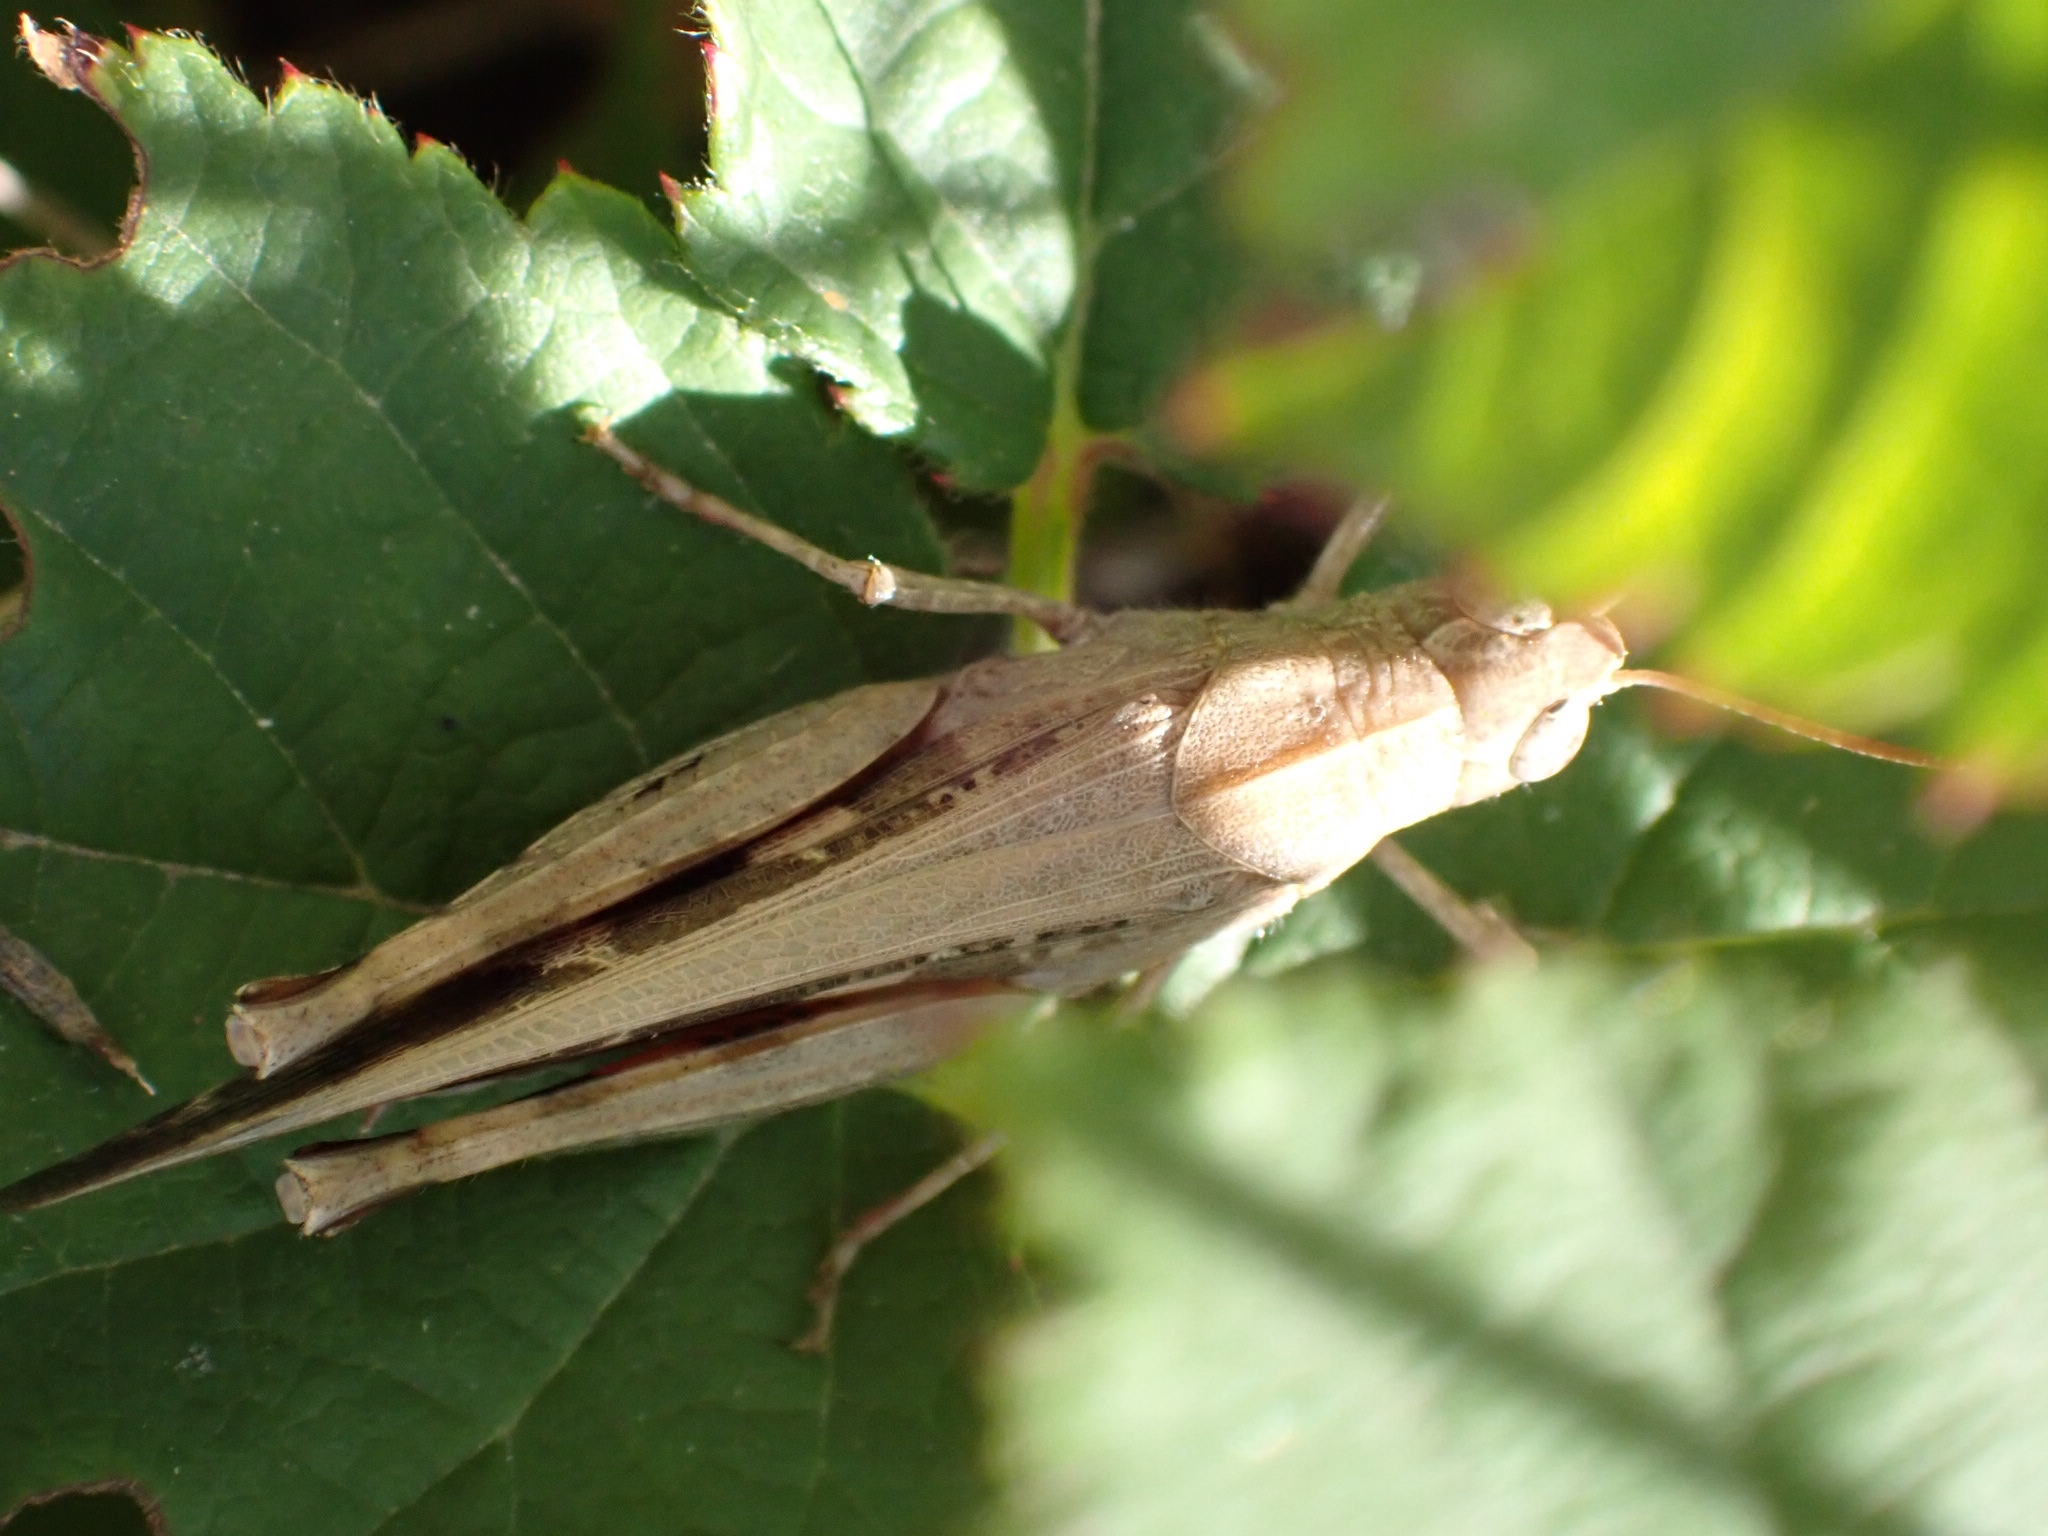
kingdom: Animalia
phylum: Arthropoda
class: Insecta
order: Orthoptera
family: Acrididae
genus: Aiolopus
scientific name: Aiolopus strepens
